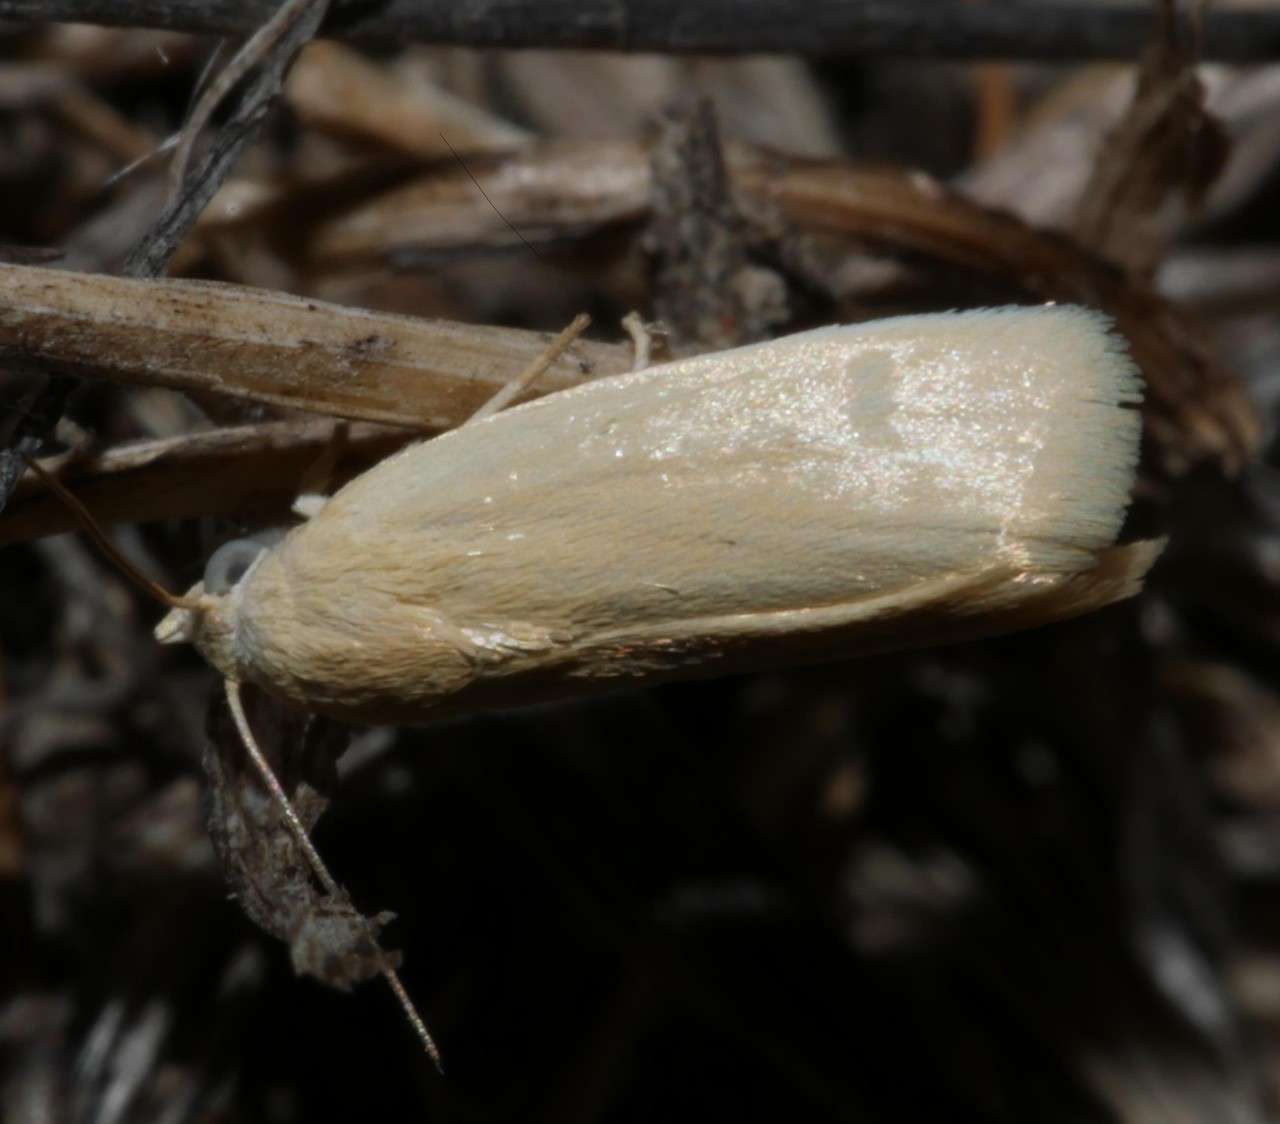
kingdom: Animalia
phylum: Arthropoda
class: Insecta
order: Lepidoptera
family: Nolidae
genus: Earias
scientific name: Earias chlorodes
